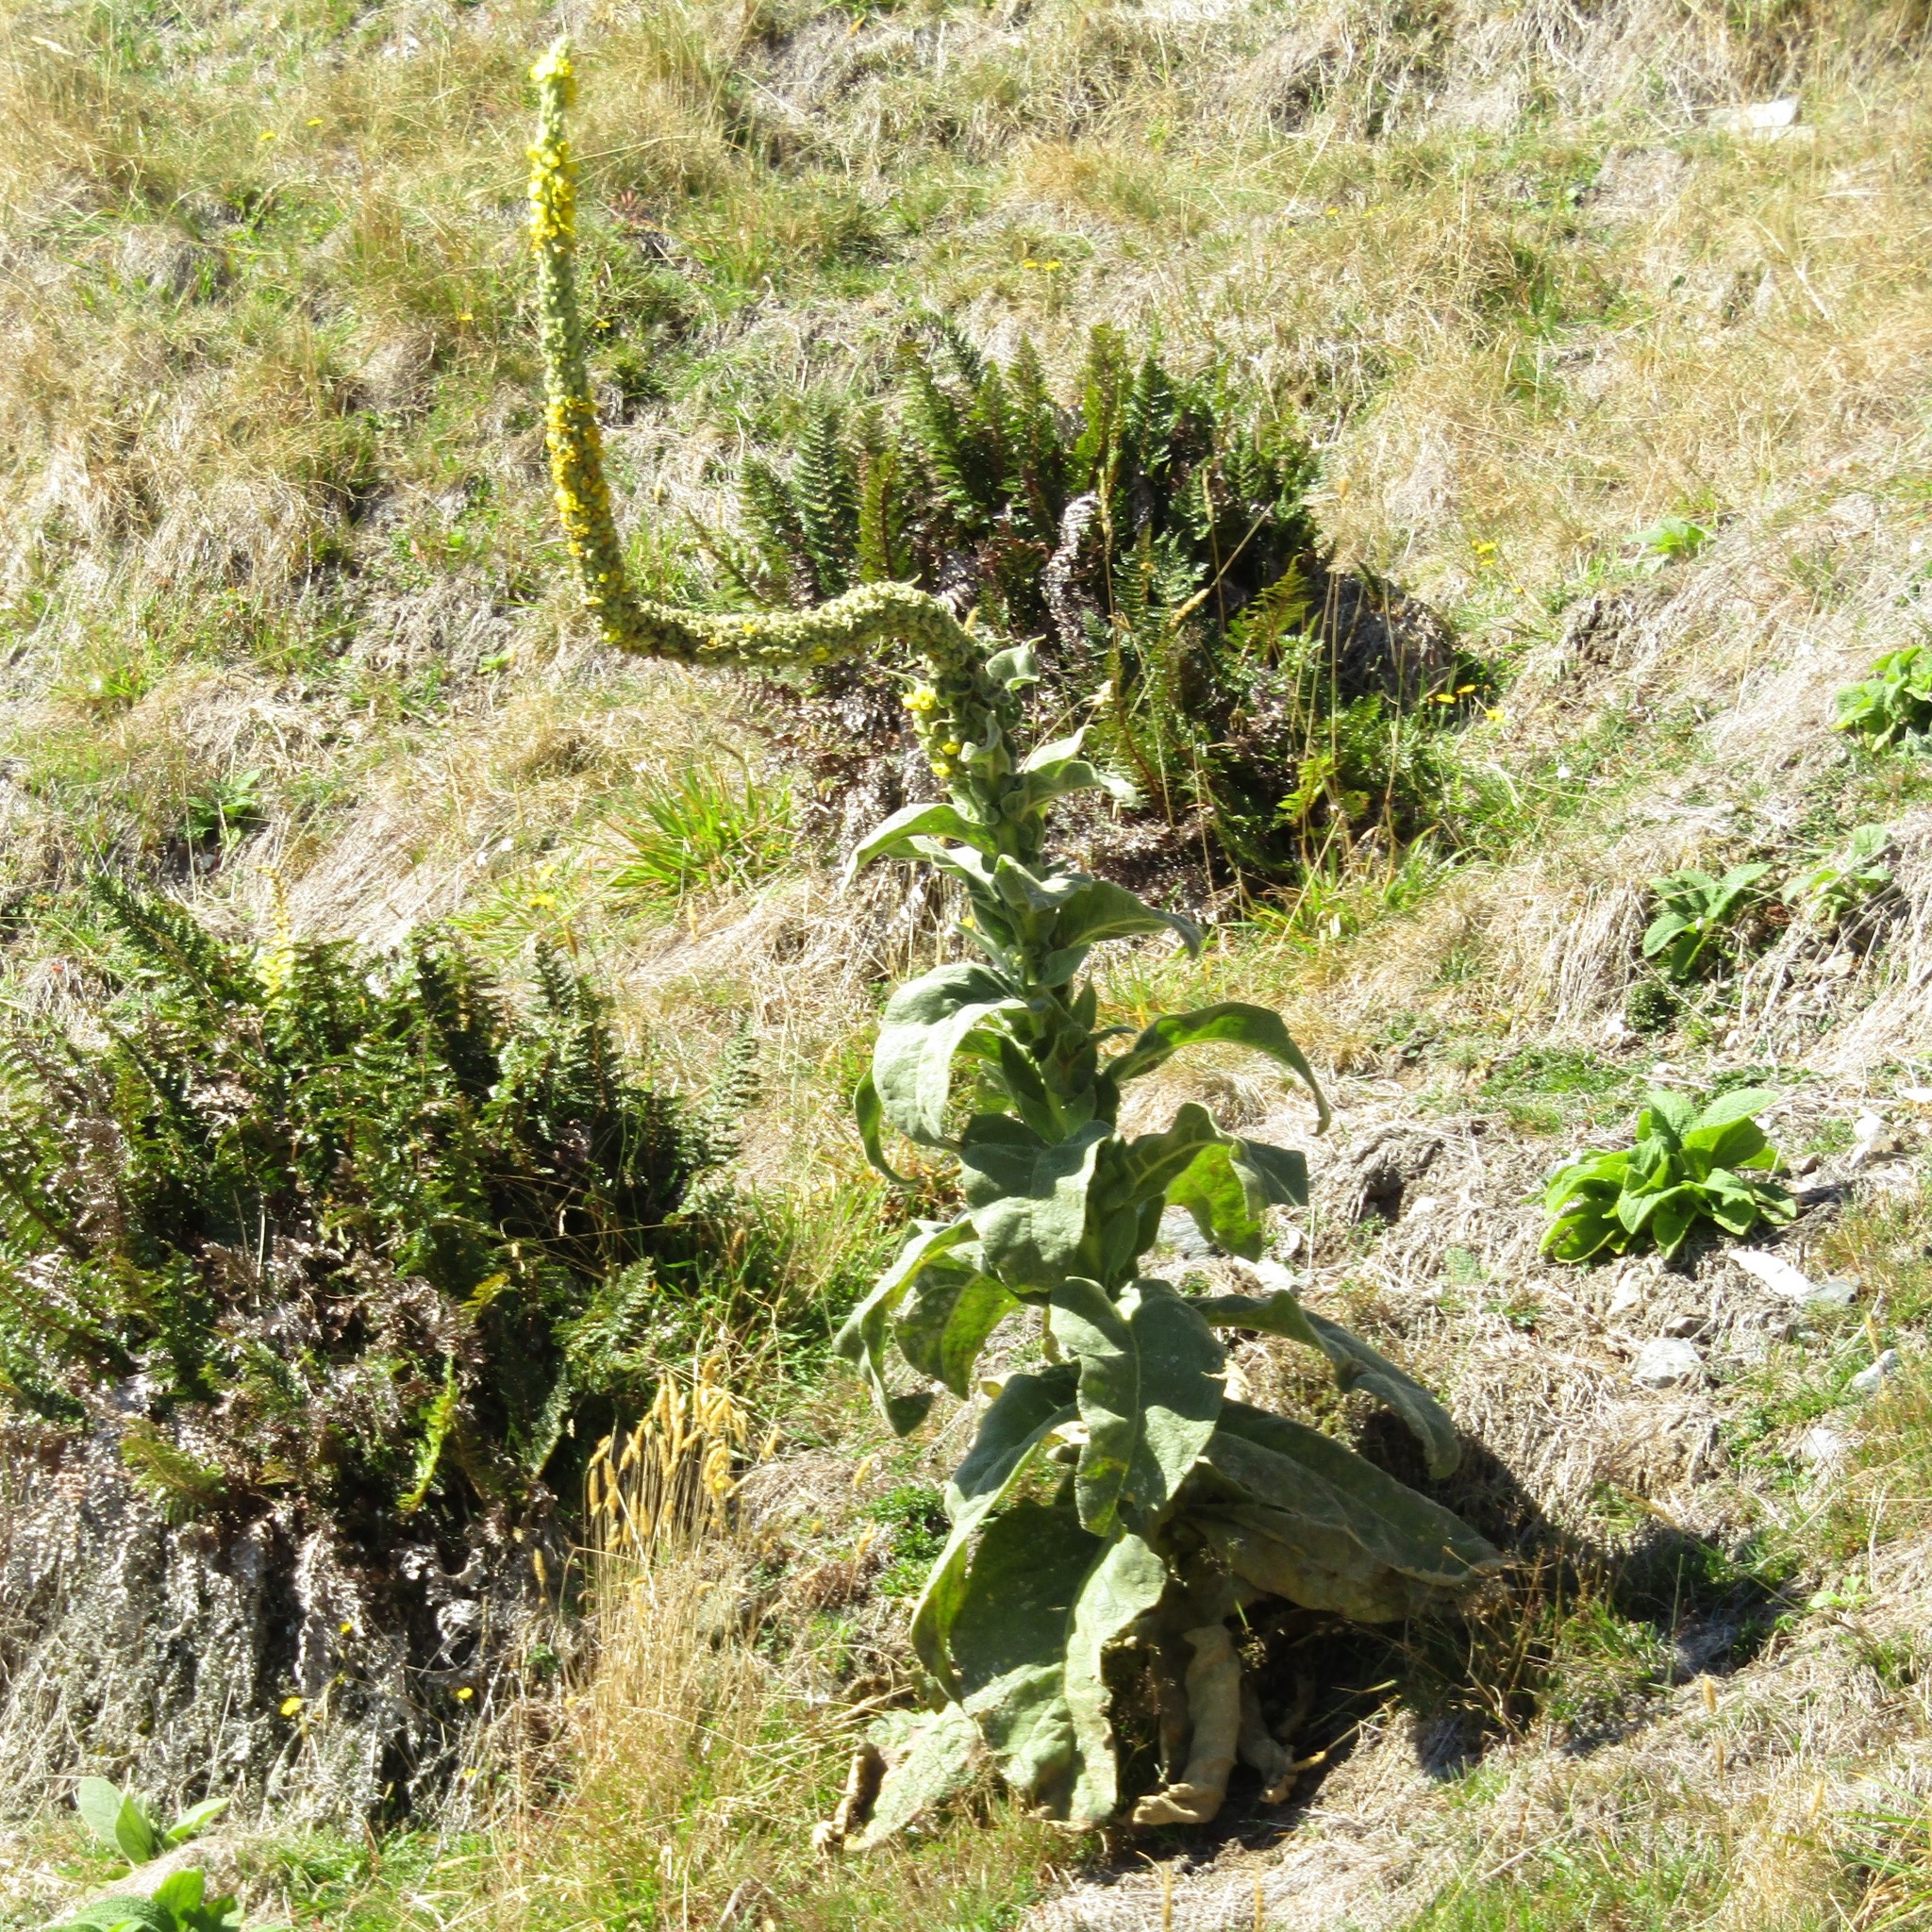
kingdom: Plantae
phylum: Tracheophyta
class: Magnoliopsida
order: Lamiales
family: Scrophulariaceae
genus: Verbascum
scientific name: Verbascum thapsus
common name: Common mullein
